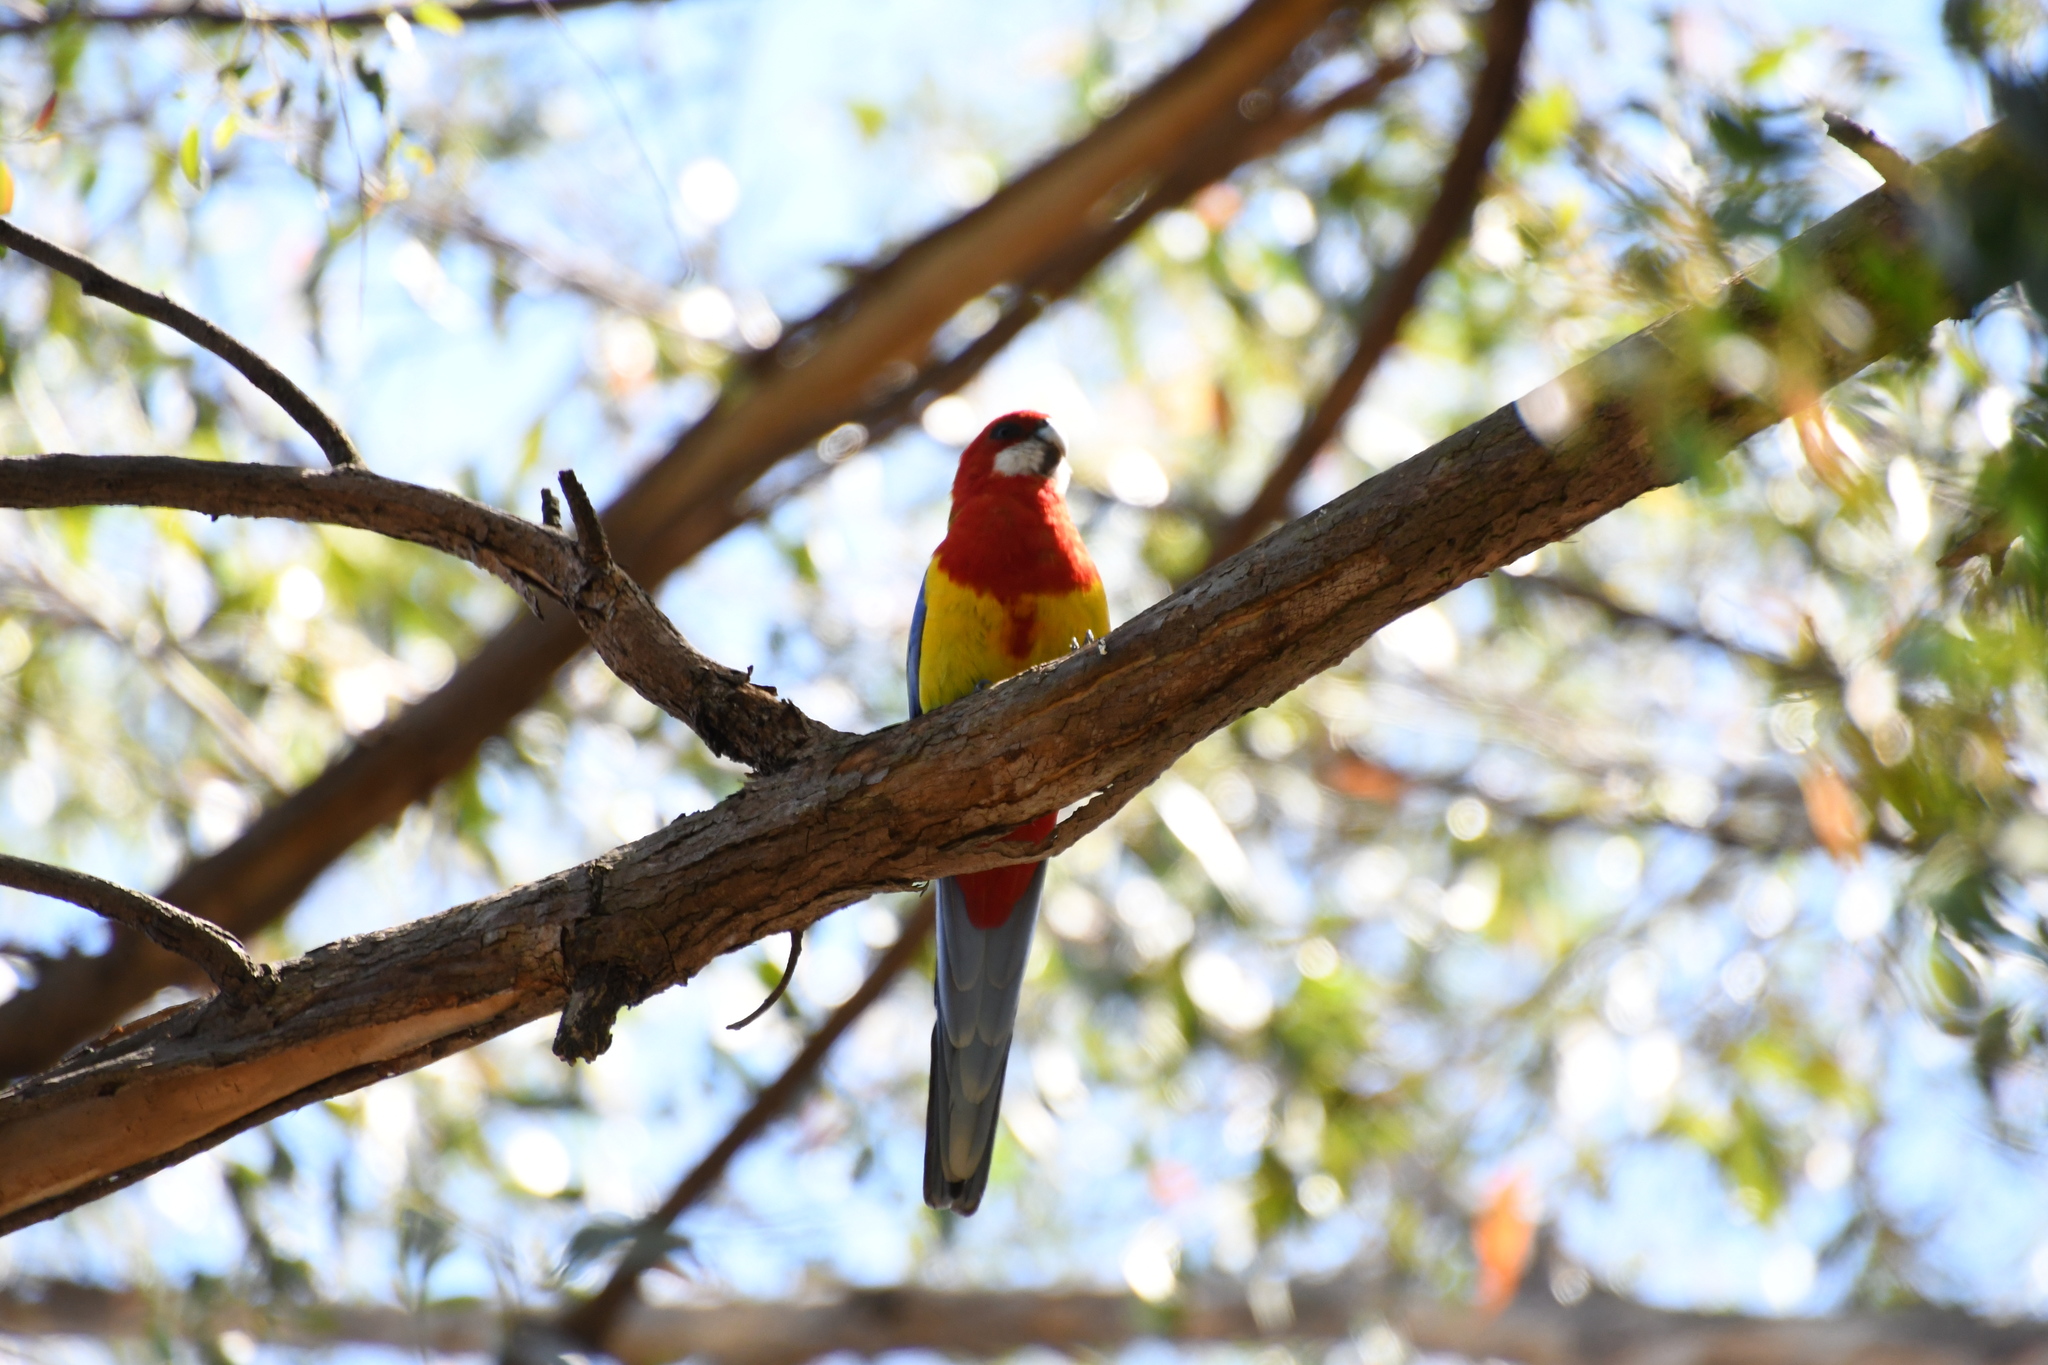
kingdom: Animalia
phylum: Chordata
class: Aves
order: Psittaciformes
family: Psittacidae
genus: Platycercus
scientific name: Platycercus eximius
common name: Eastern rosella
